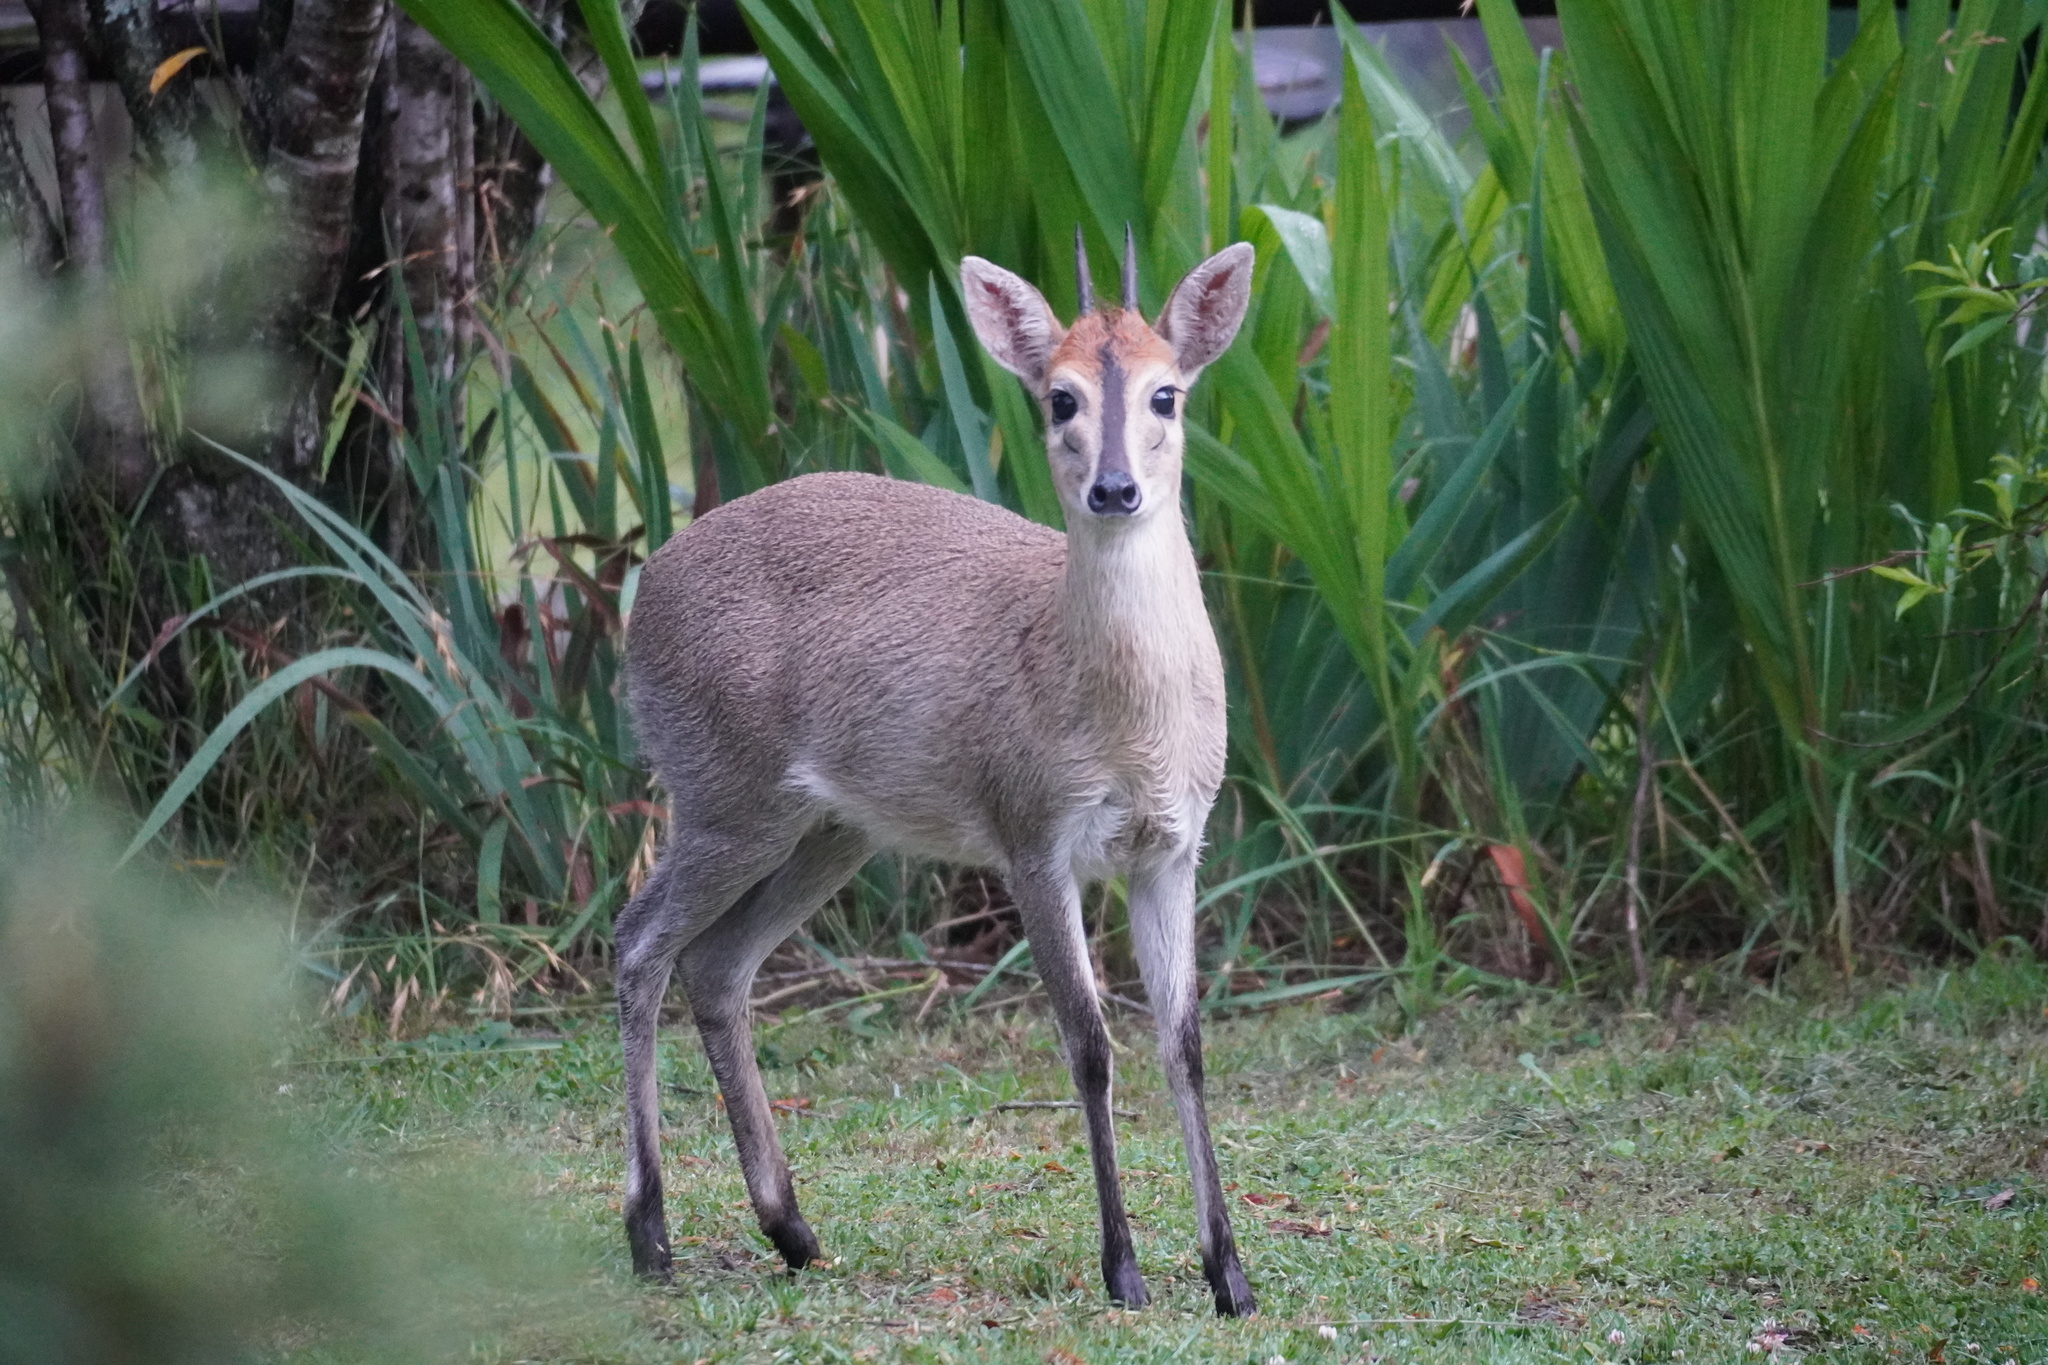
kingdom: Animalia
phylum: Chordata
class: Mammalia
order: Artiodactyla
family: Bovidae
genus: Sylvicapra
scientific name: Sylvicapra grimmia
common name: Bush duiker
